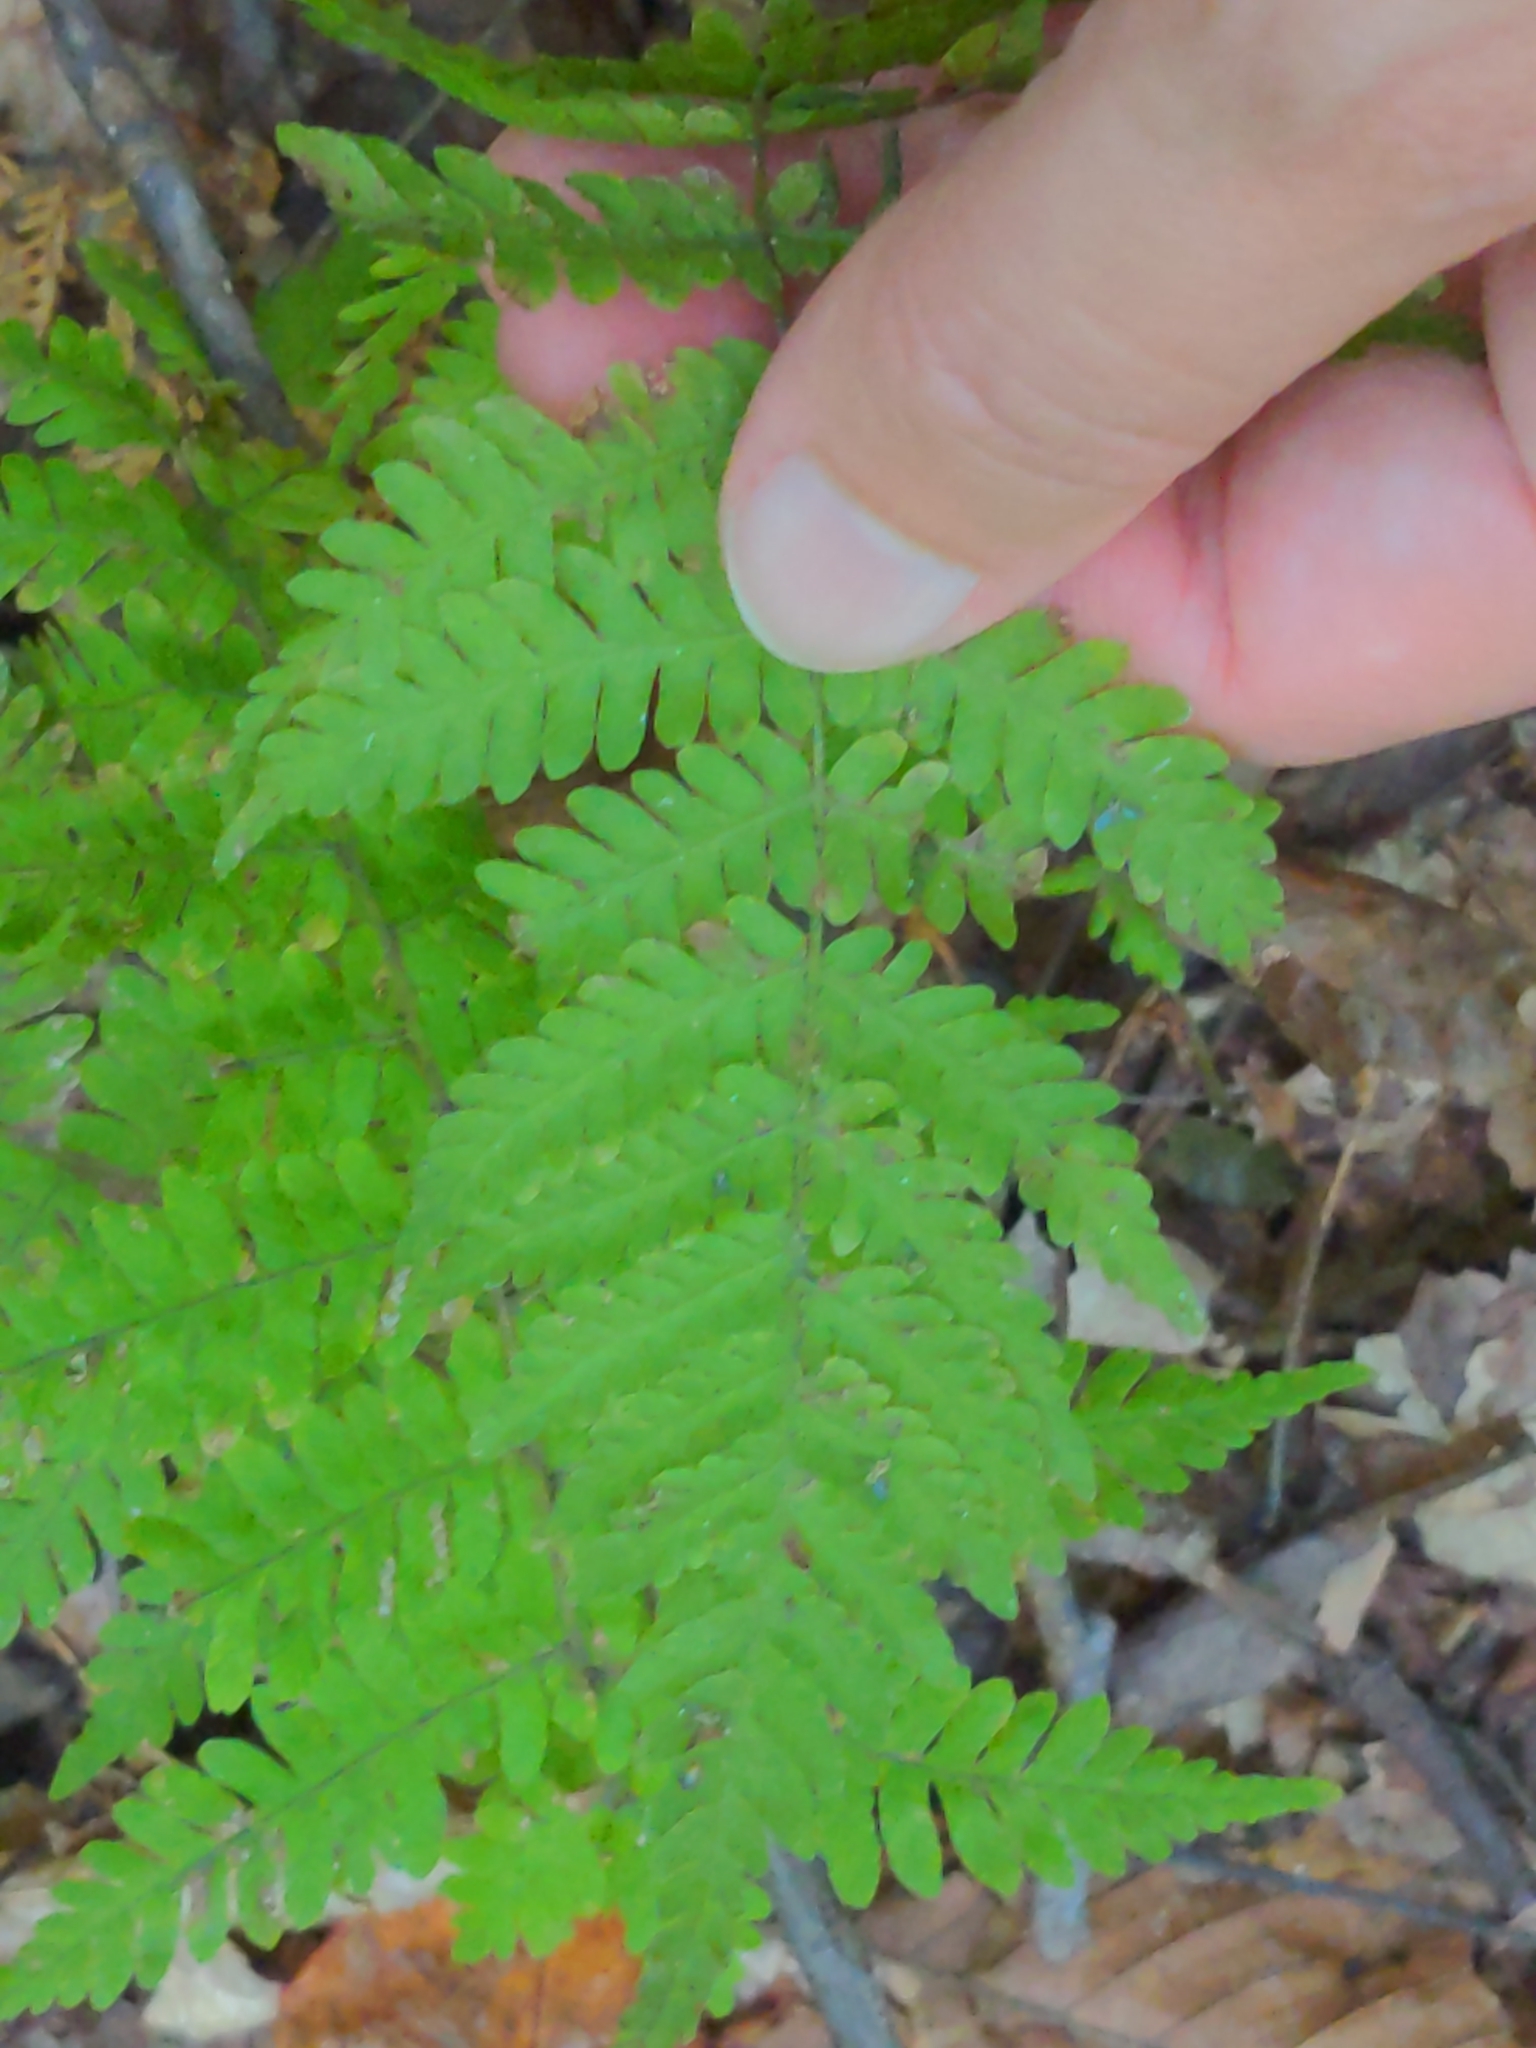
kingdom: Plantae
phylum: Tracheophyta
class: Polypodiopsida
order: Polypodiales
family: Thelypteridaceae
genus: Amauropelta
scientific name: Amauropelta noveboracensis
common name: New york fern
